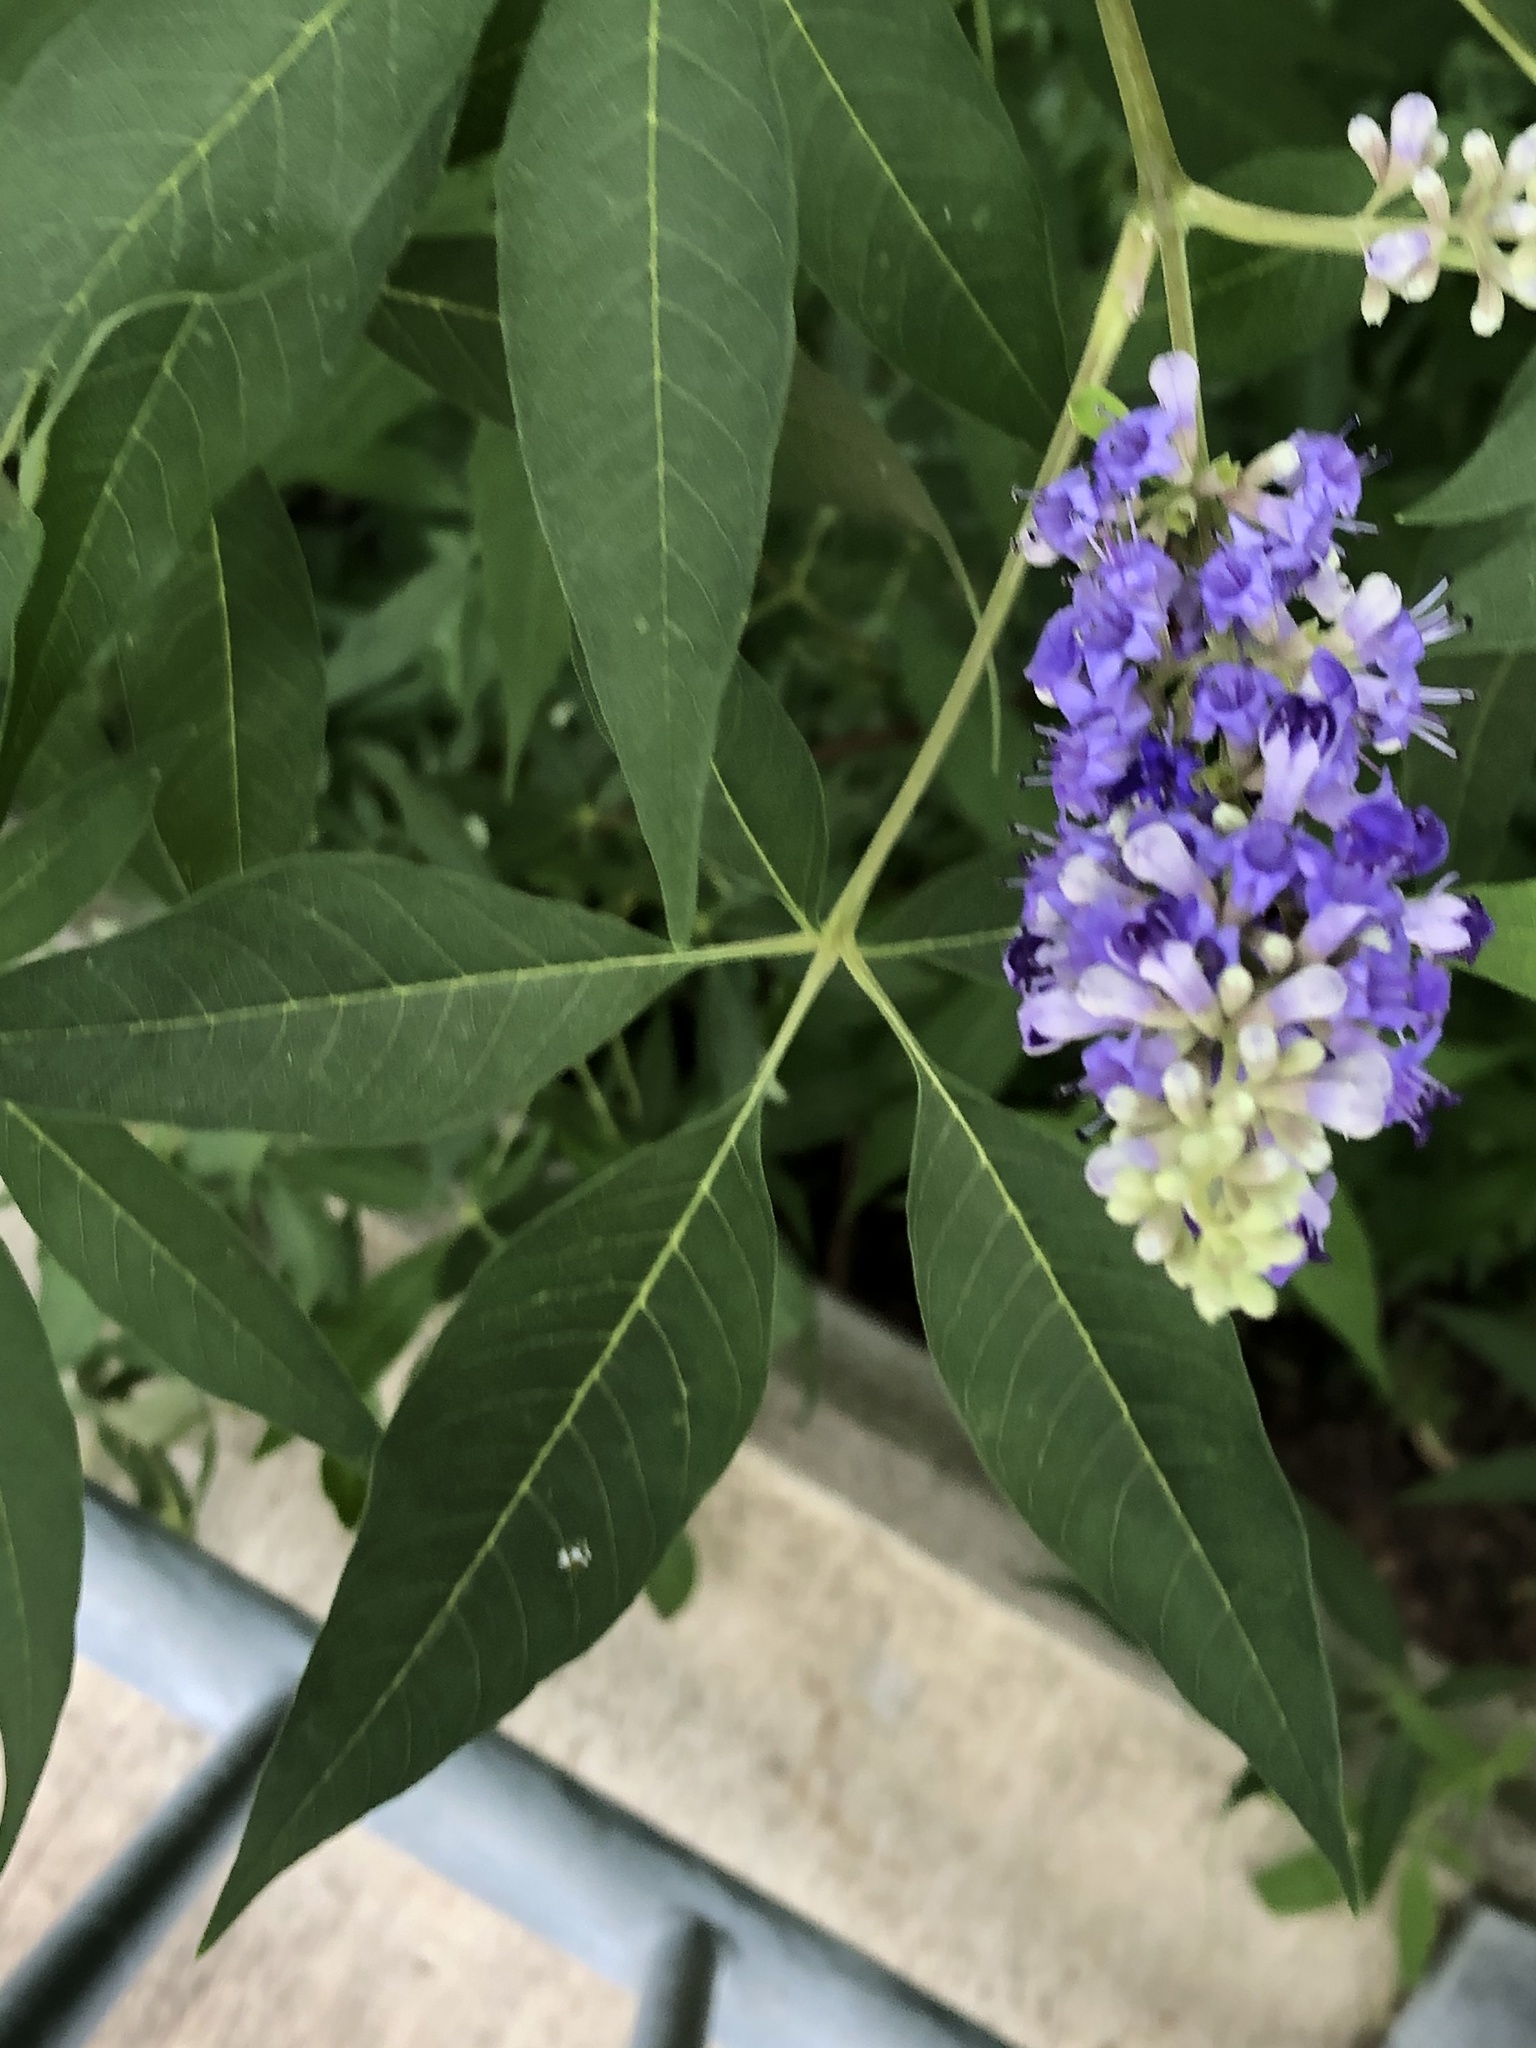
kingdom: Plantae
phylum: Tracheophyta
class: Magnoliopsida
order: Lamiales
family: Lamiaceae
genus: Vitex
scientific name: Vitex agnus-castus
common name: Chasteberry
